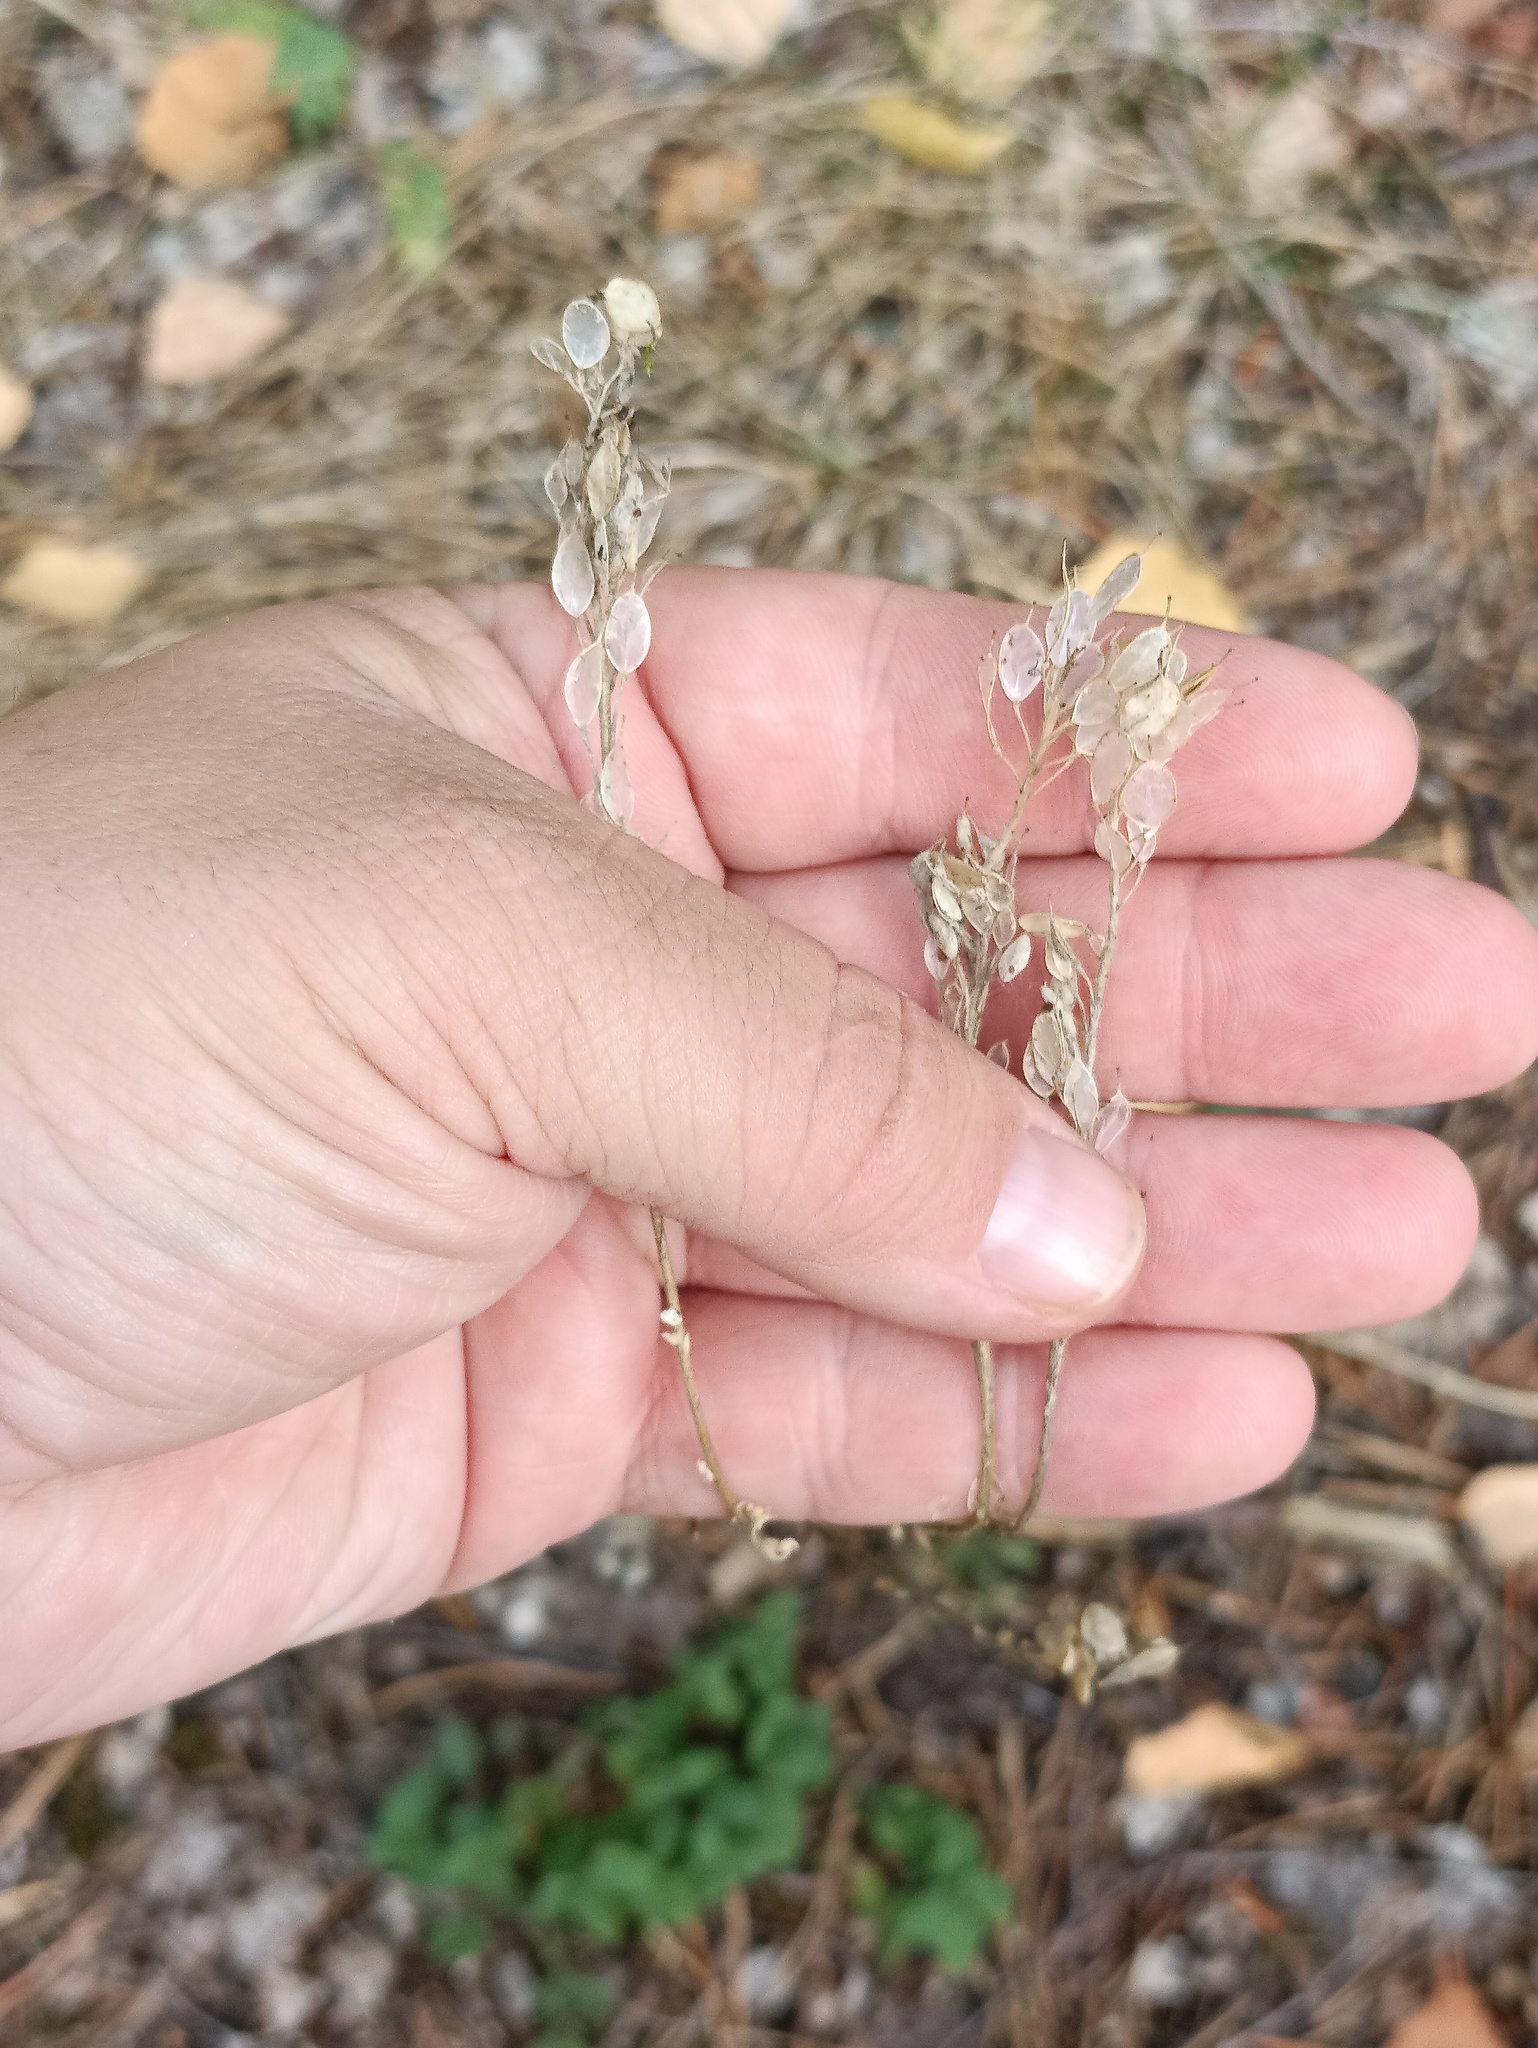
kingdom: Plantae
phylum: Tracheophyta
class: Magnoliopsida
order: Brassicales
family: Brassicaceae
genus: Berteroa
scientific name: Berteroa incana
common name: Hoary alison
